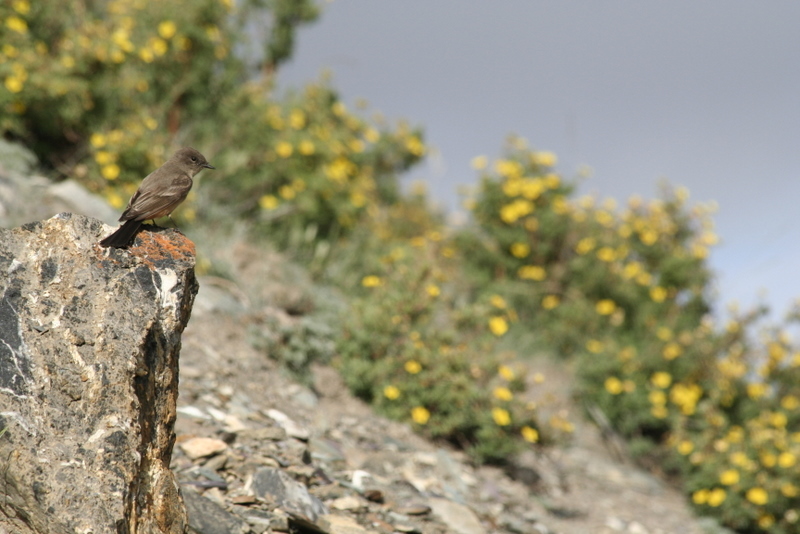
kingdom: Animalia
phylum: Chordata
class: Aves
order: Passeriformes
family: Tyrannidae
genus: Sayornis
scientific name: Sayornis saya
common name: Say's phoebe
